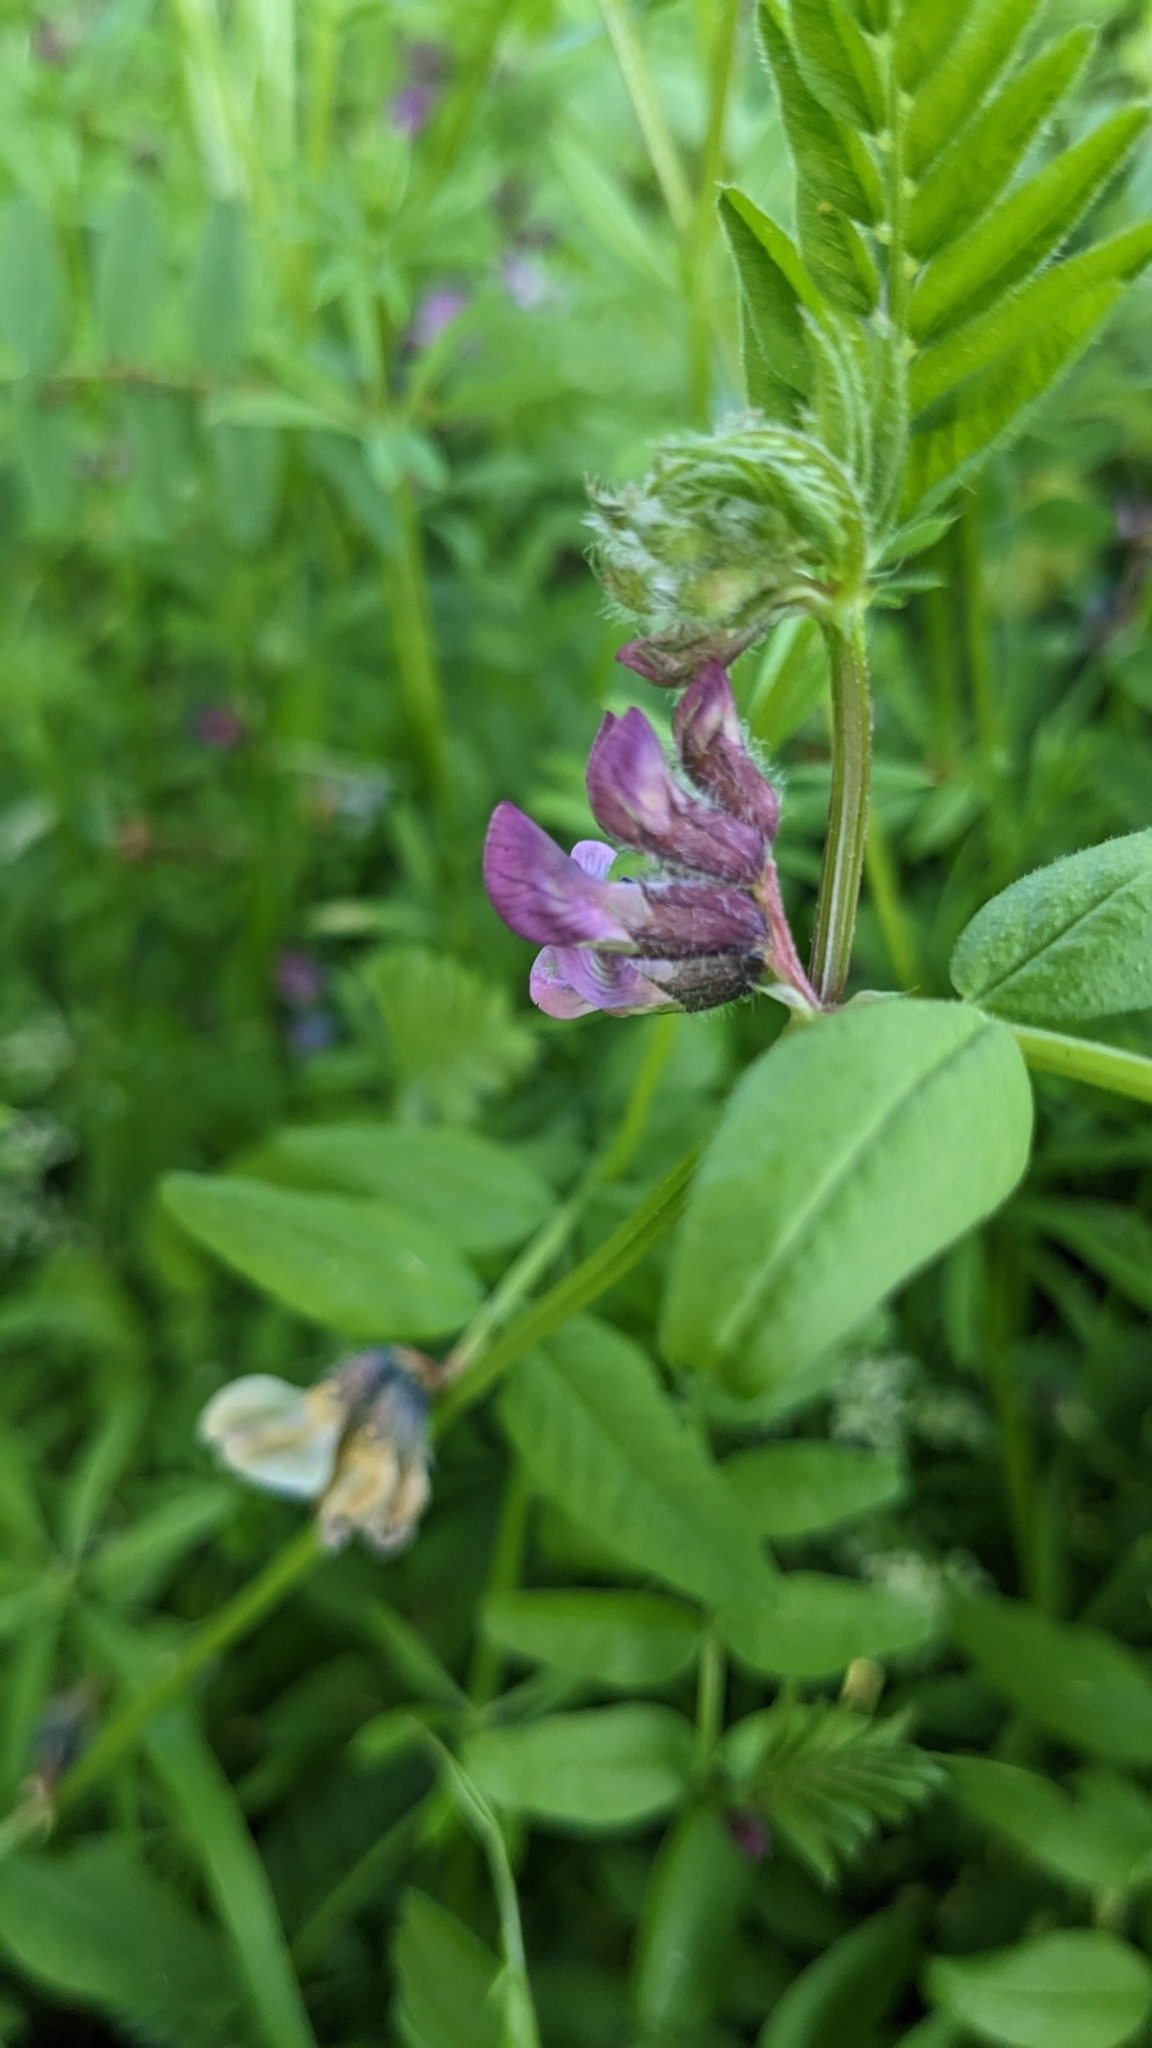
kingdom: Plantae
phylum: Tracheophyta
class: Magnoliopsida
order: Fabales
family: Fabaceae
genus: Vicia
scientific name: Vicia sepium
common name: Bush vetch
